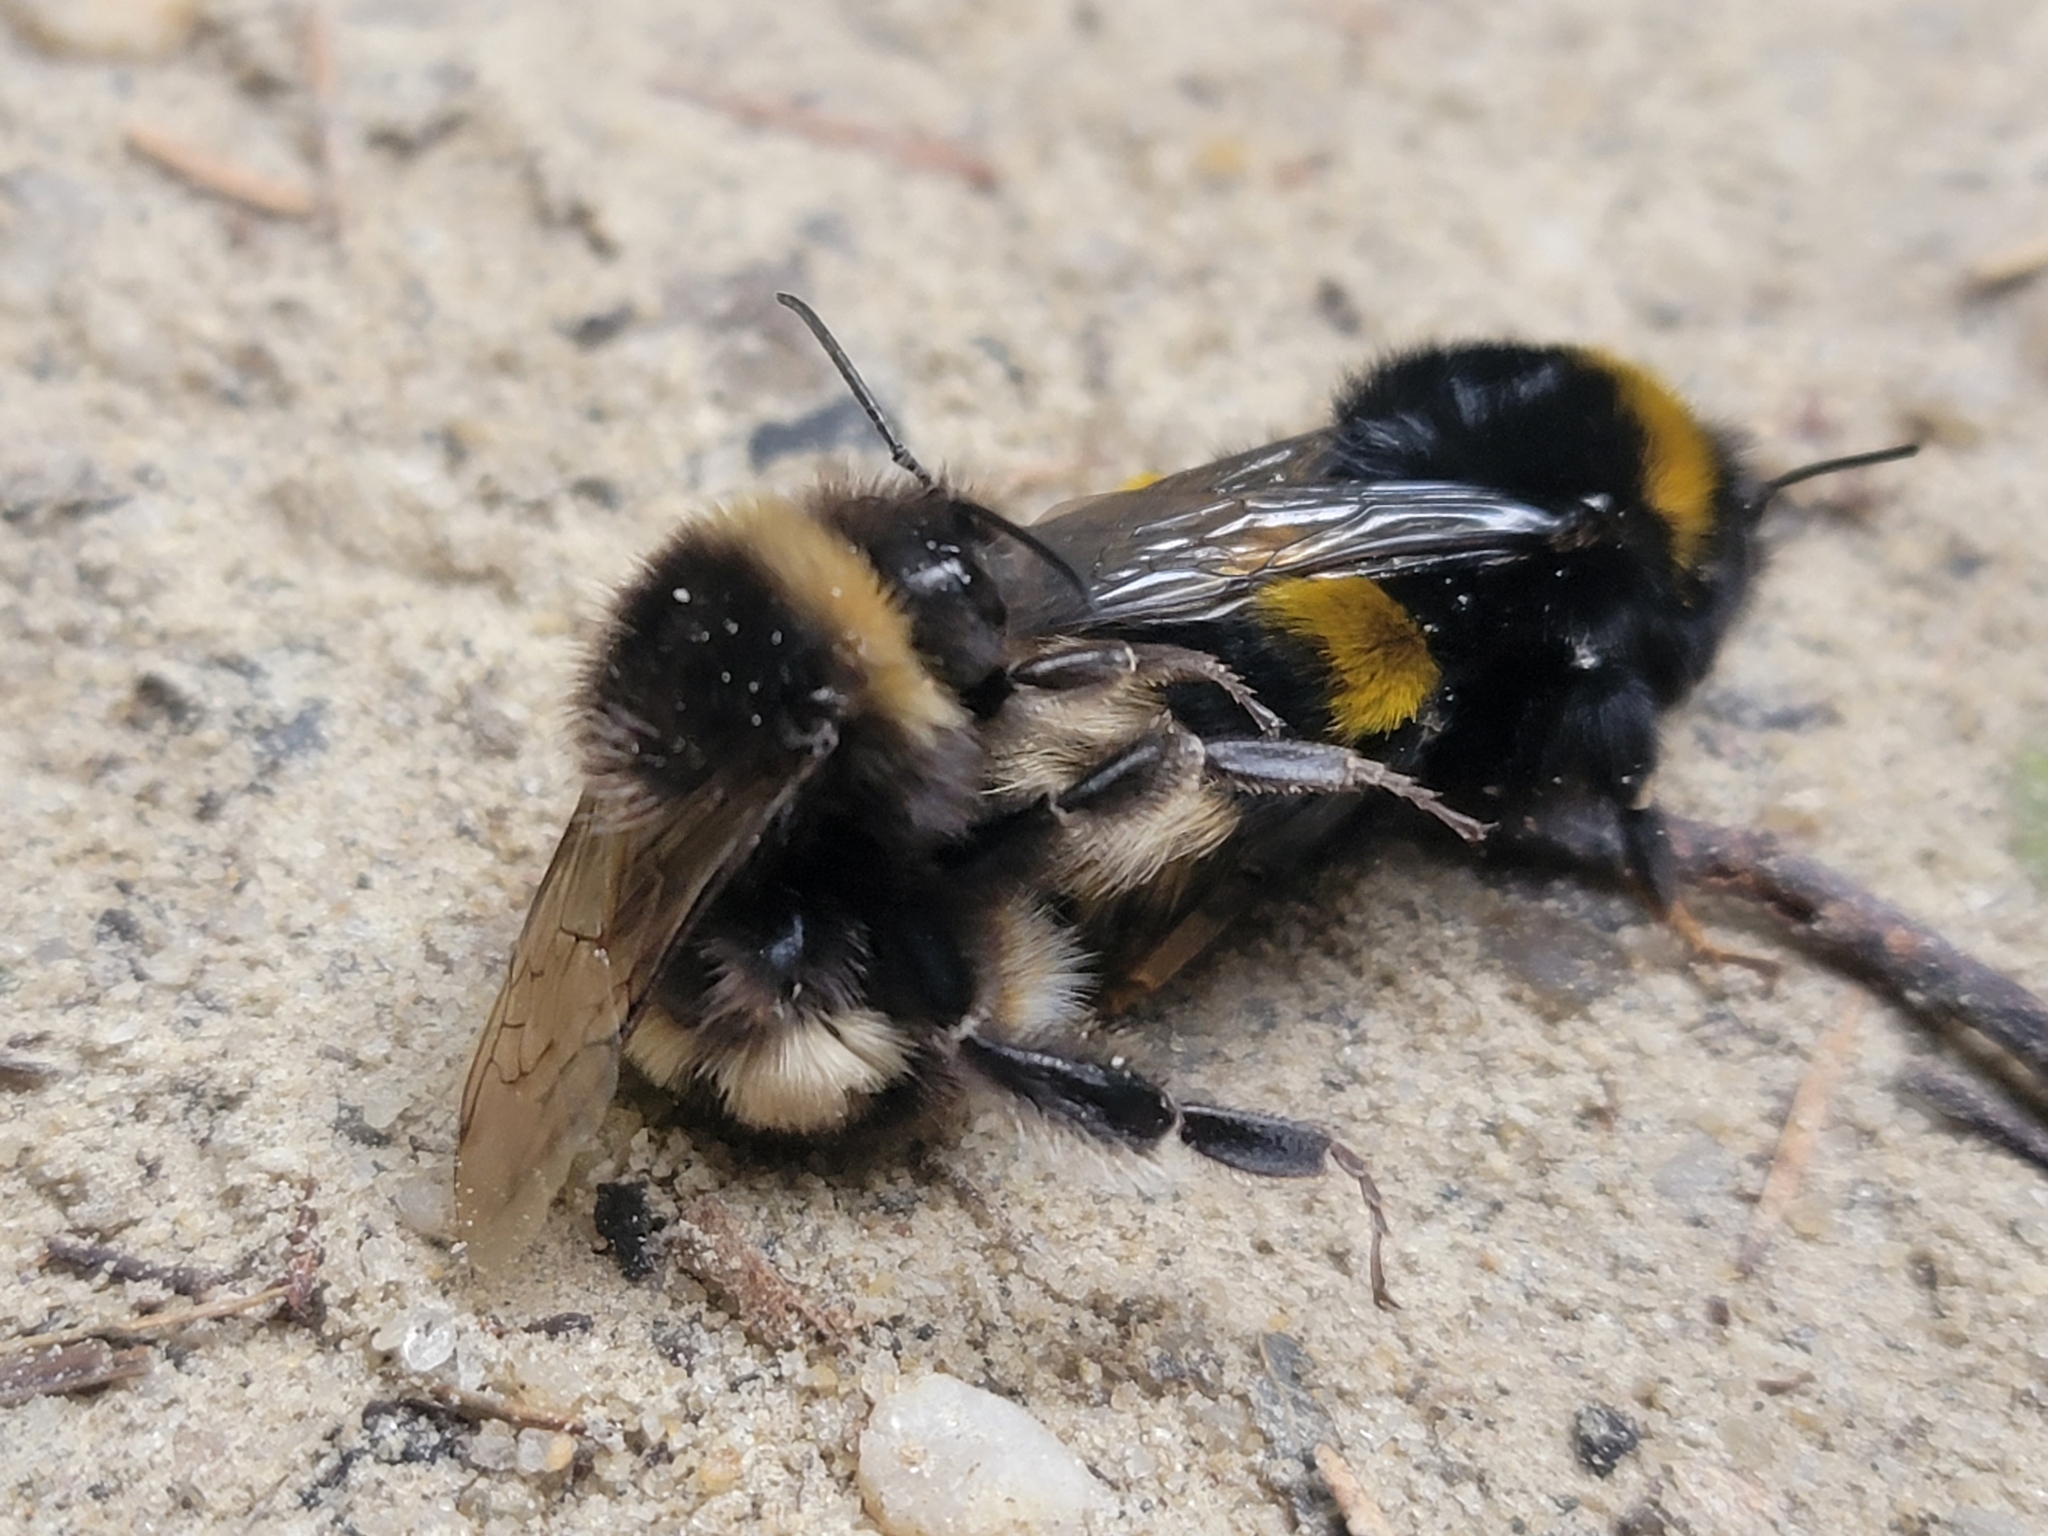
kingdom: Animalia
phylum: Arthropoda
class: Insecta
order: Hymenoptera
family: Apidae
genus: Bombus
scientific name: Bombus terrestris
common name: Buff-tailed bumblebee
